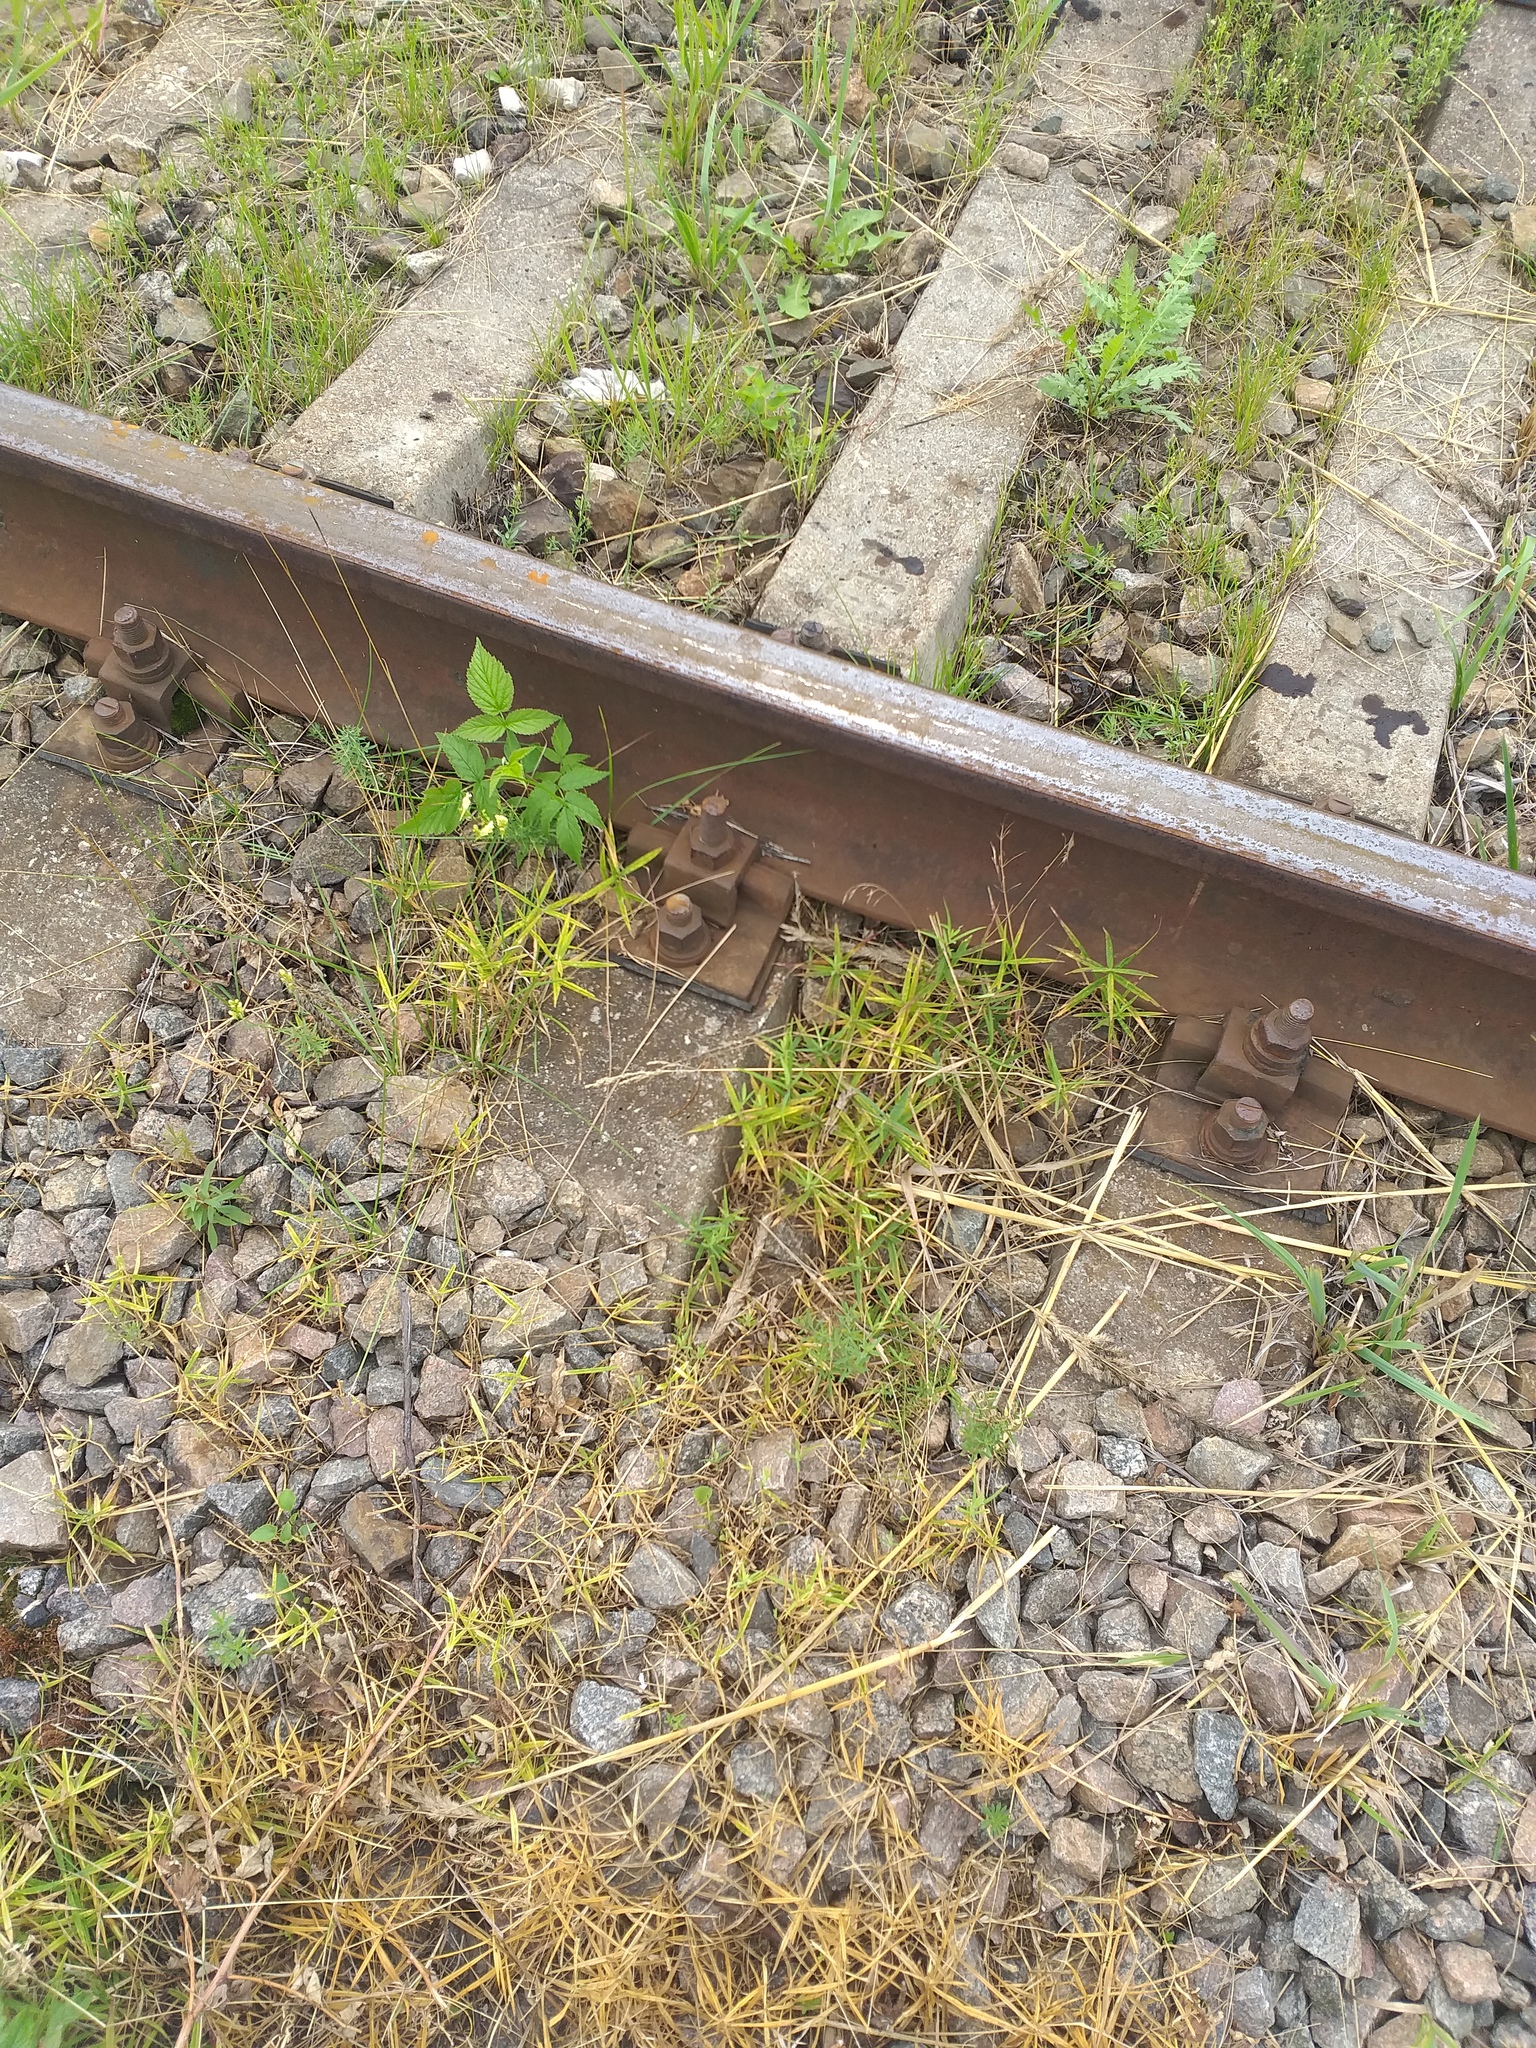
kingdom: Plantae
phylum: Tracheophyta
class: Magnoliopsida
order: Caryophyllales
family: Caryophyllaceae
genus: Rabelera
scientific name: Rabelera holostea
